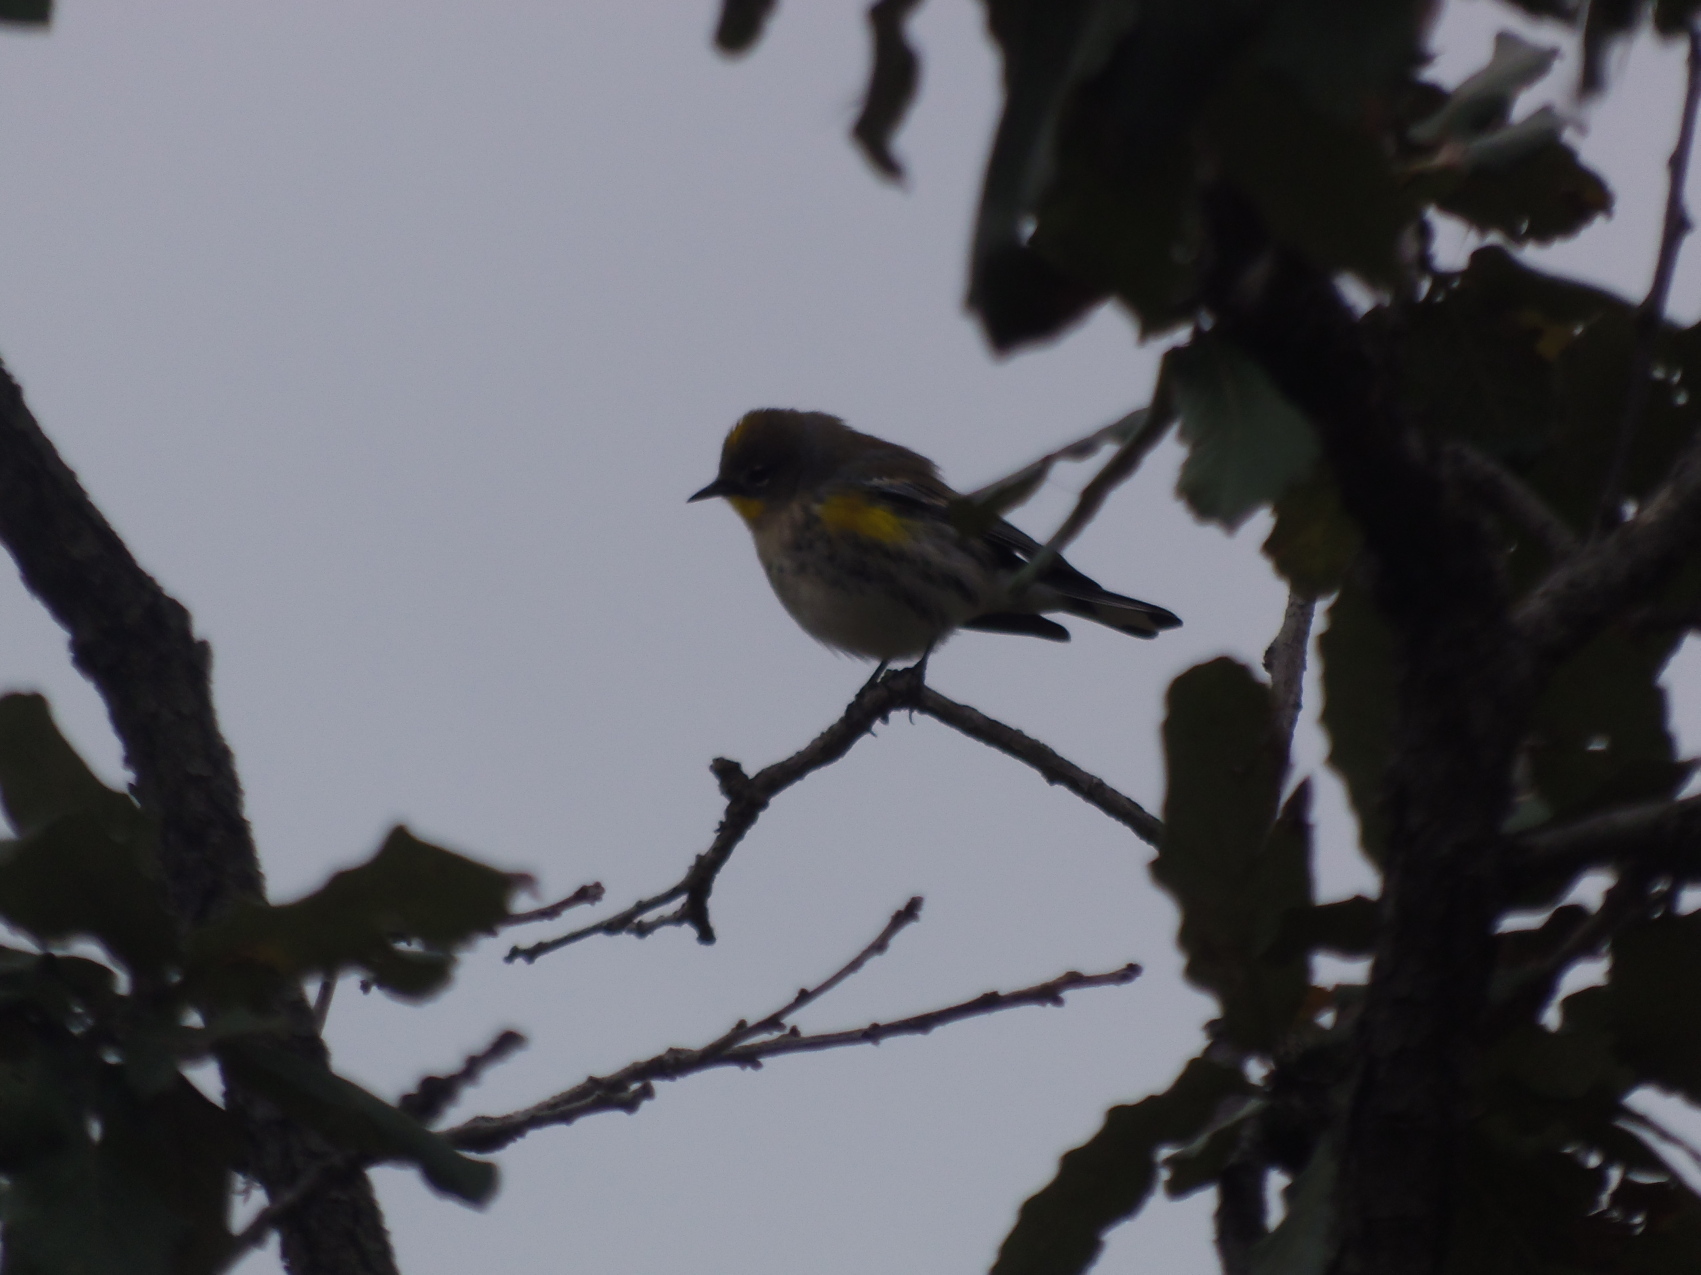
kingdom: Animalia
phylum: Chordata
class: Aves
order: Passeriformes
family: Parulidae
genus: Setophaga
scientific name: Setophaga auduboni
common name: Audubon's warbler
